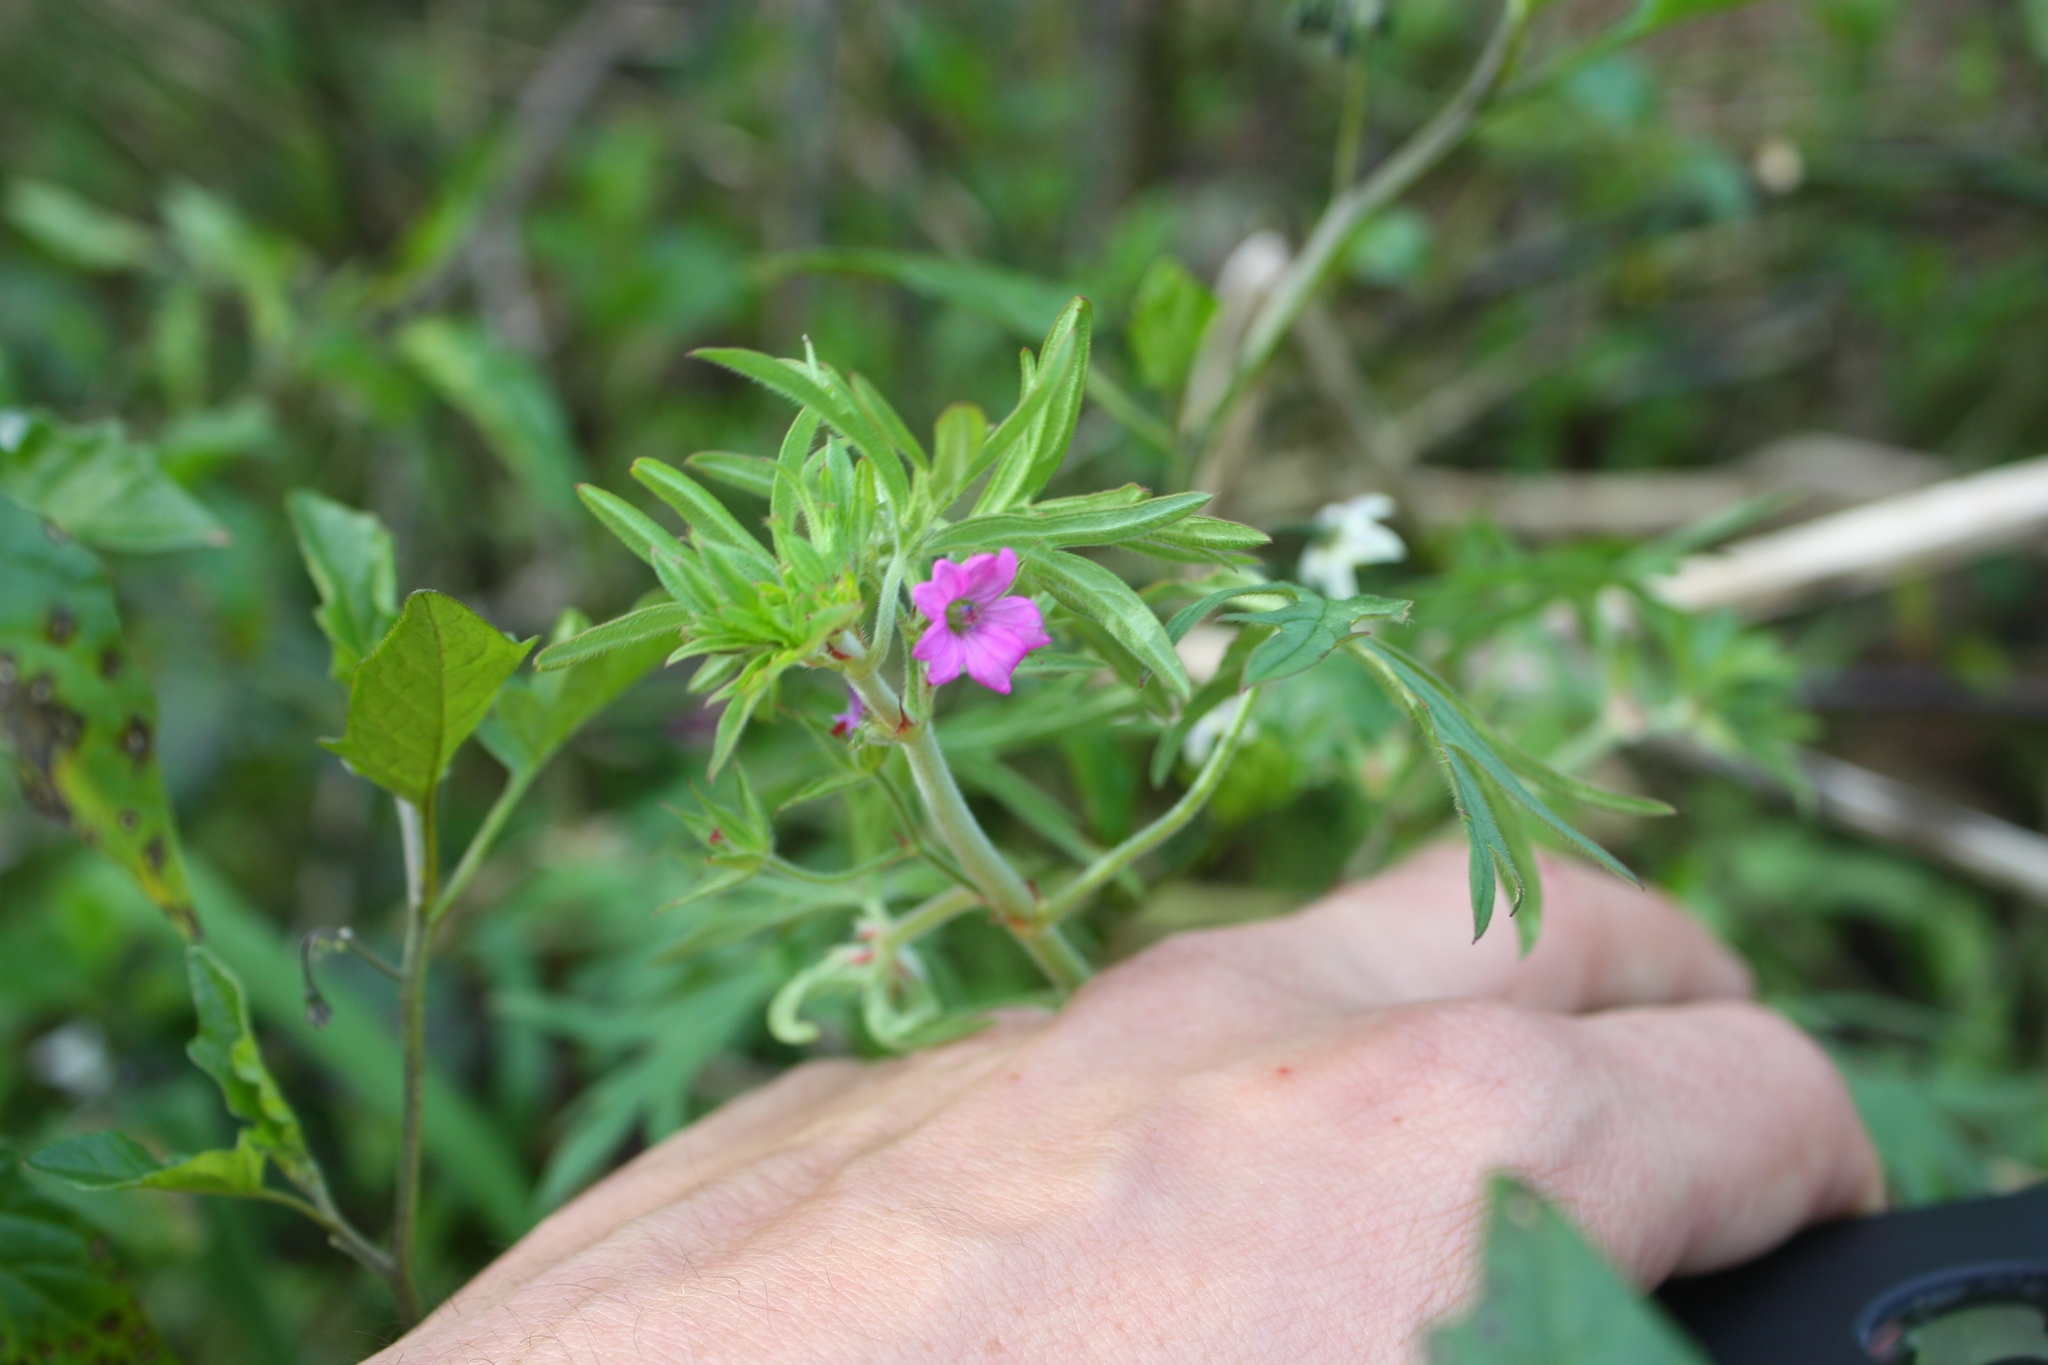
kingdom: Plantae
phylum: Tracheophyta
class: Magnoliopsida
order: Geraniales
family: Geraniaceae
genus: Geranium
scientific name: Geranium dissectum
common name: Cut-leaved crane's-bill
